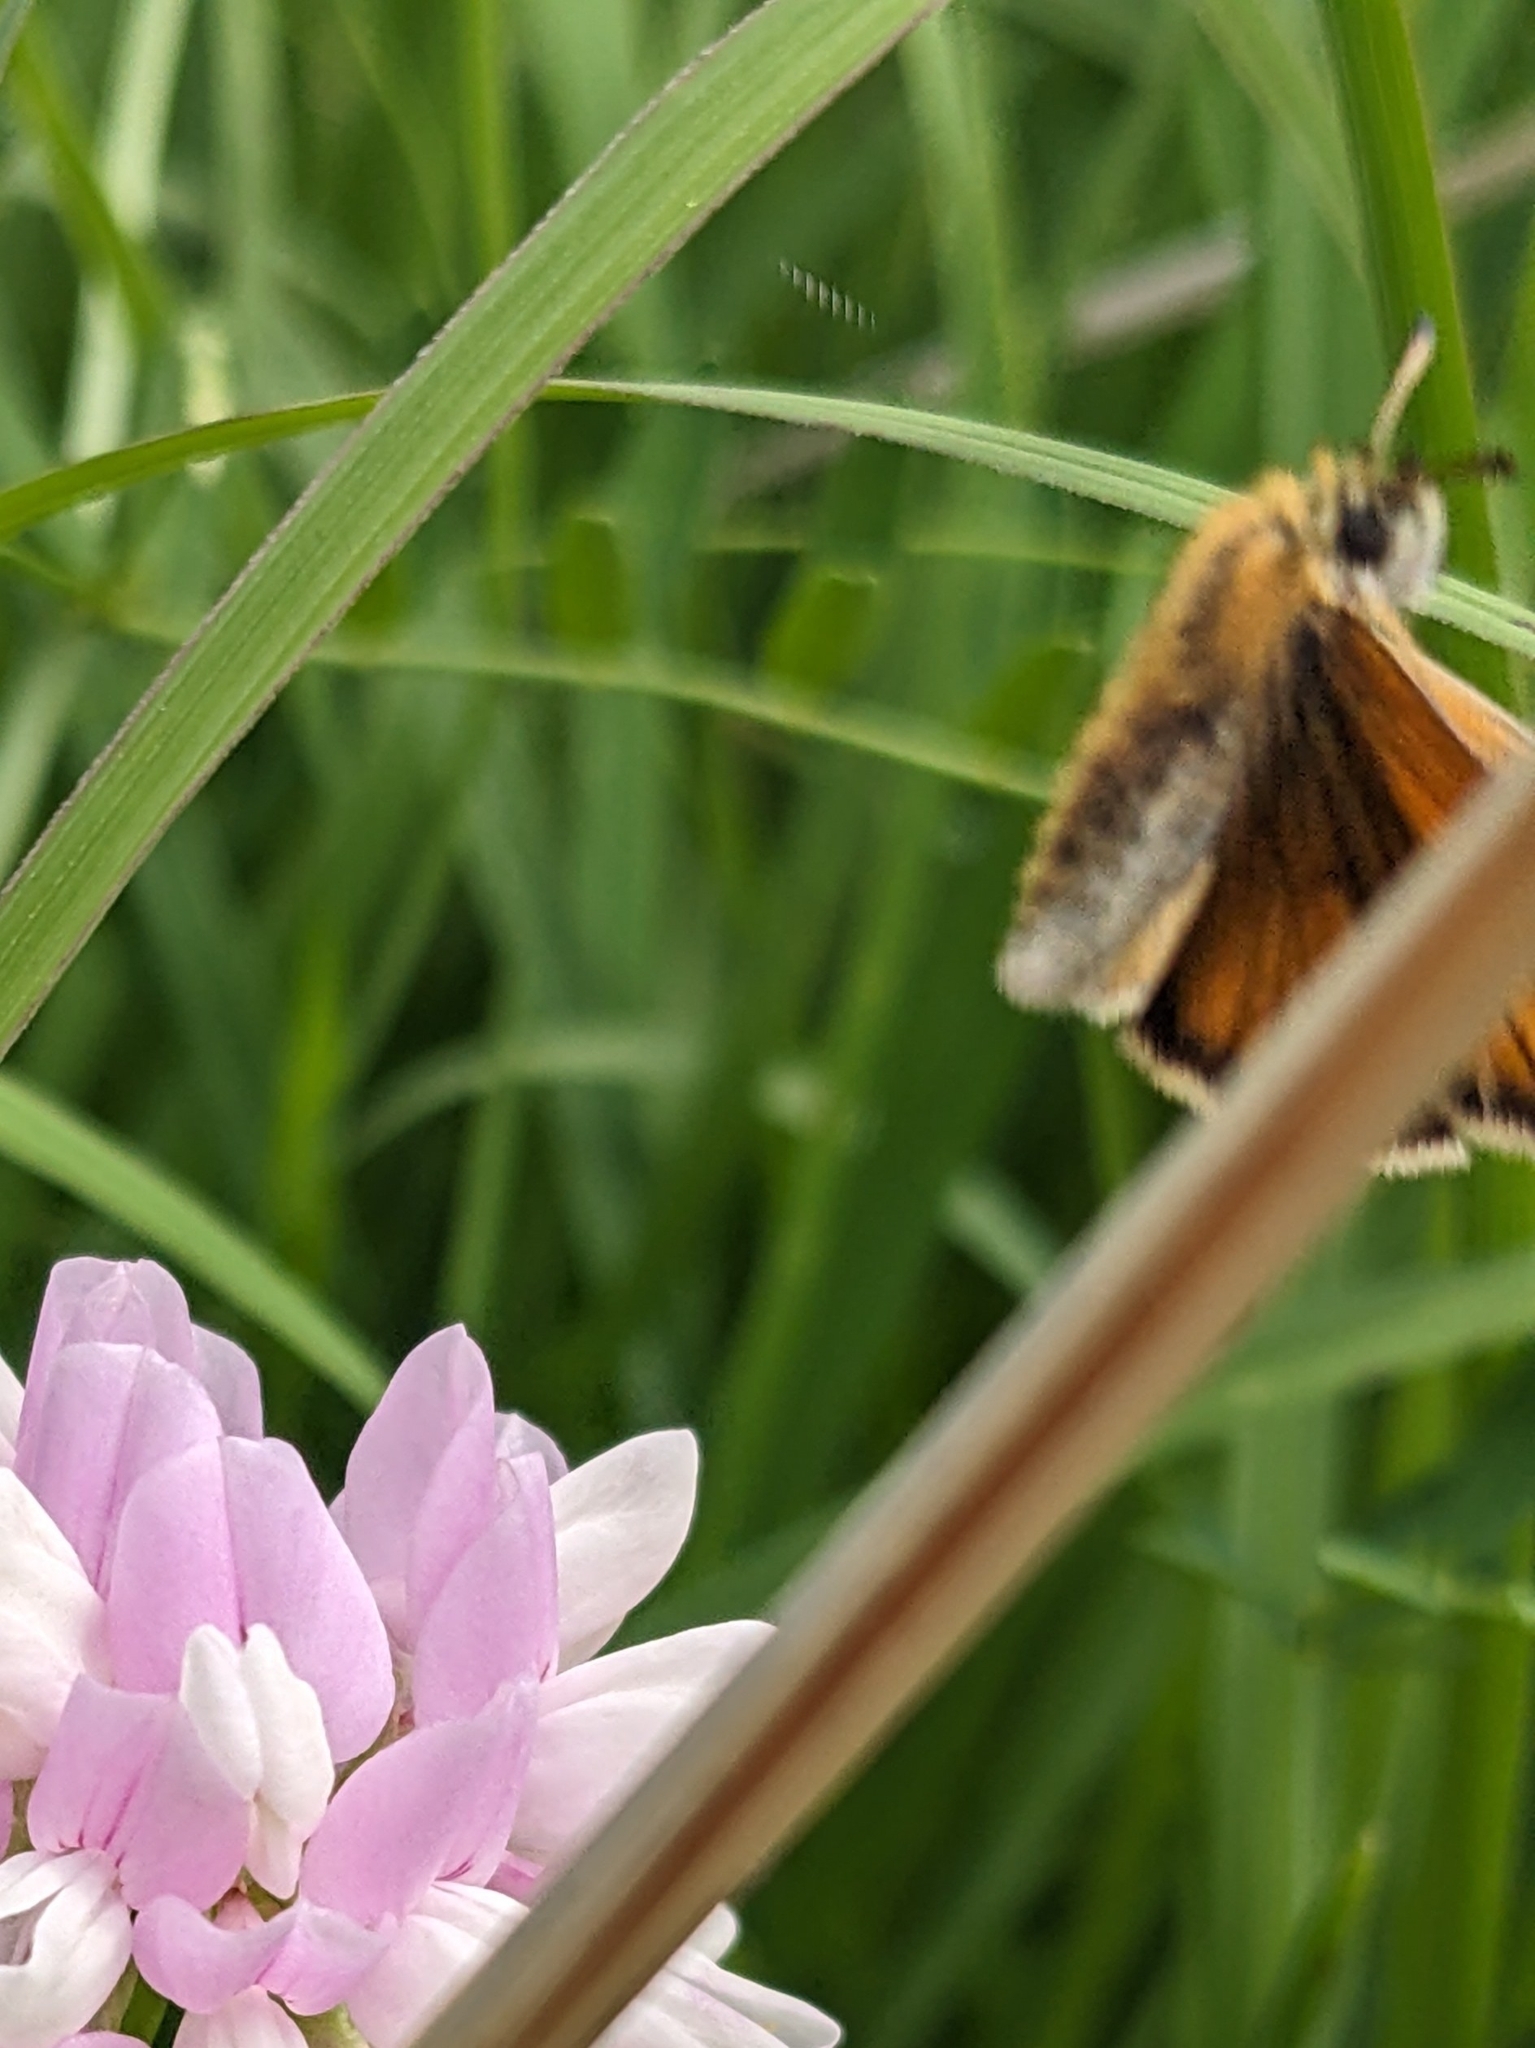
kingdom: Animalia
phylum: Arthropoda
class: Insecta
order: Lepidoptera
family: Hesperiidae
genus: Thymelicus
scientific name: Thymelicus lineola
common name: Essex skipper
